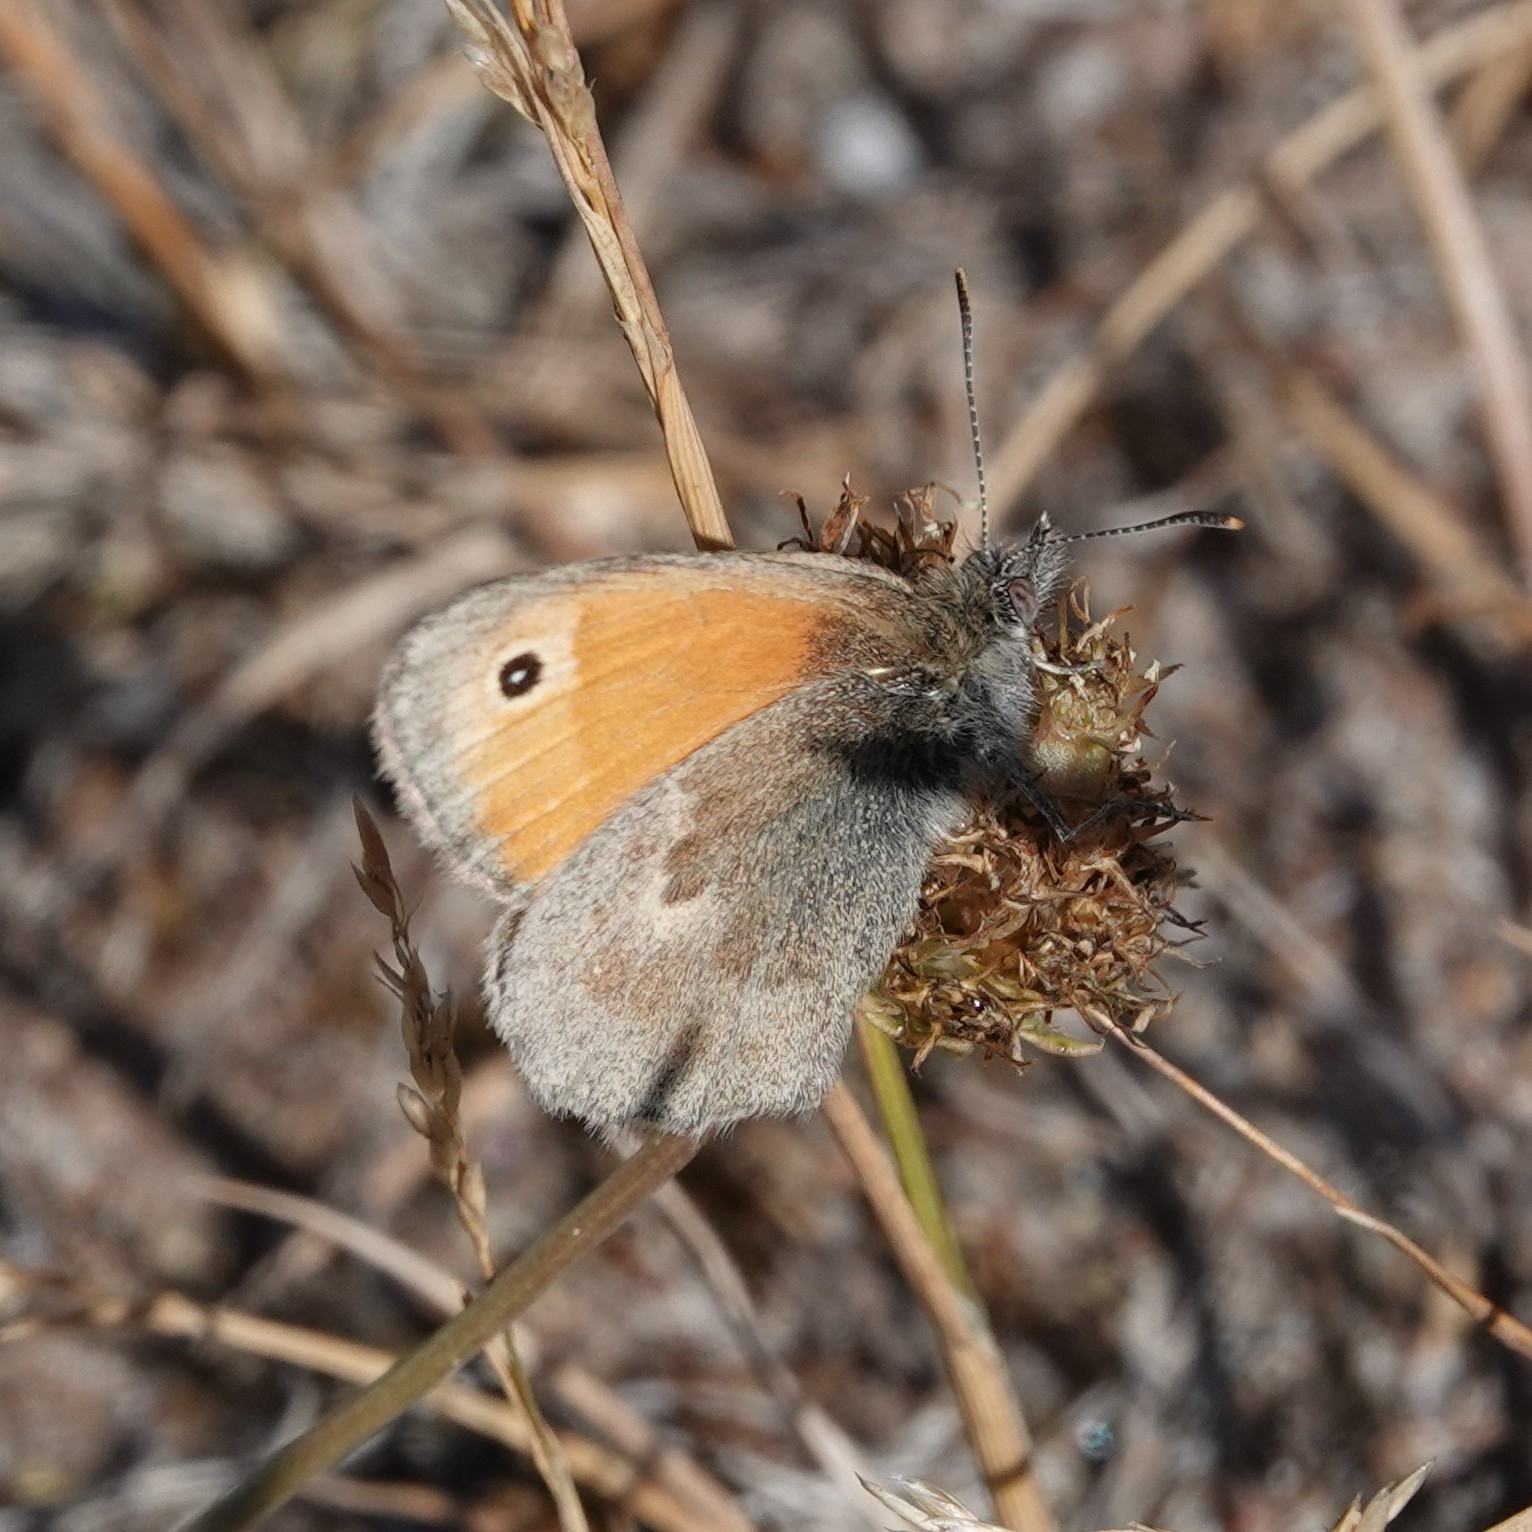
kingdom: Animalia
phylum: Arthropoda
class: Insecta
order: Lepidoptera
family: Nymphalidae
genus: Coenonympha
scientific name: Coenonympha pamphilus
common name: Small heath
